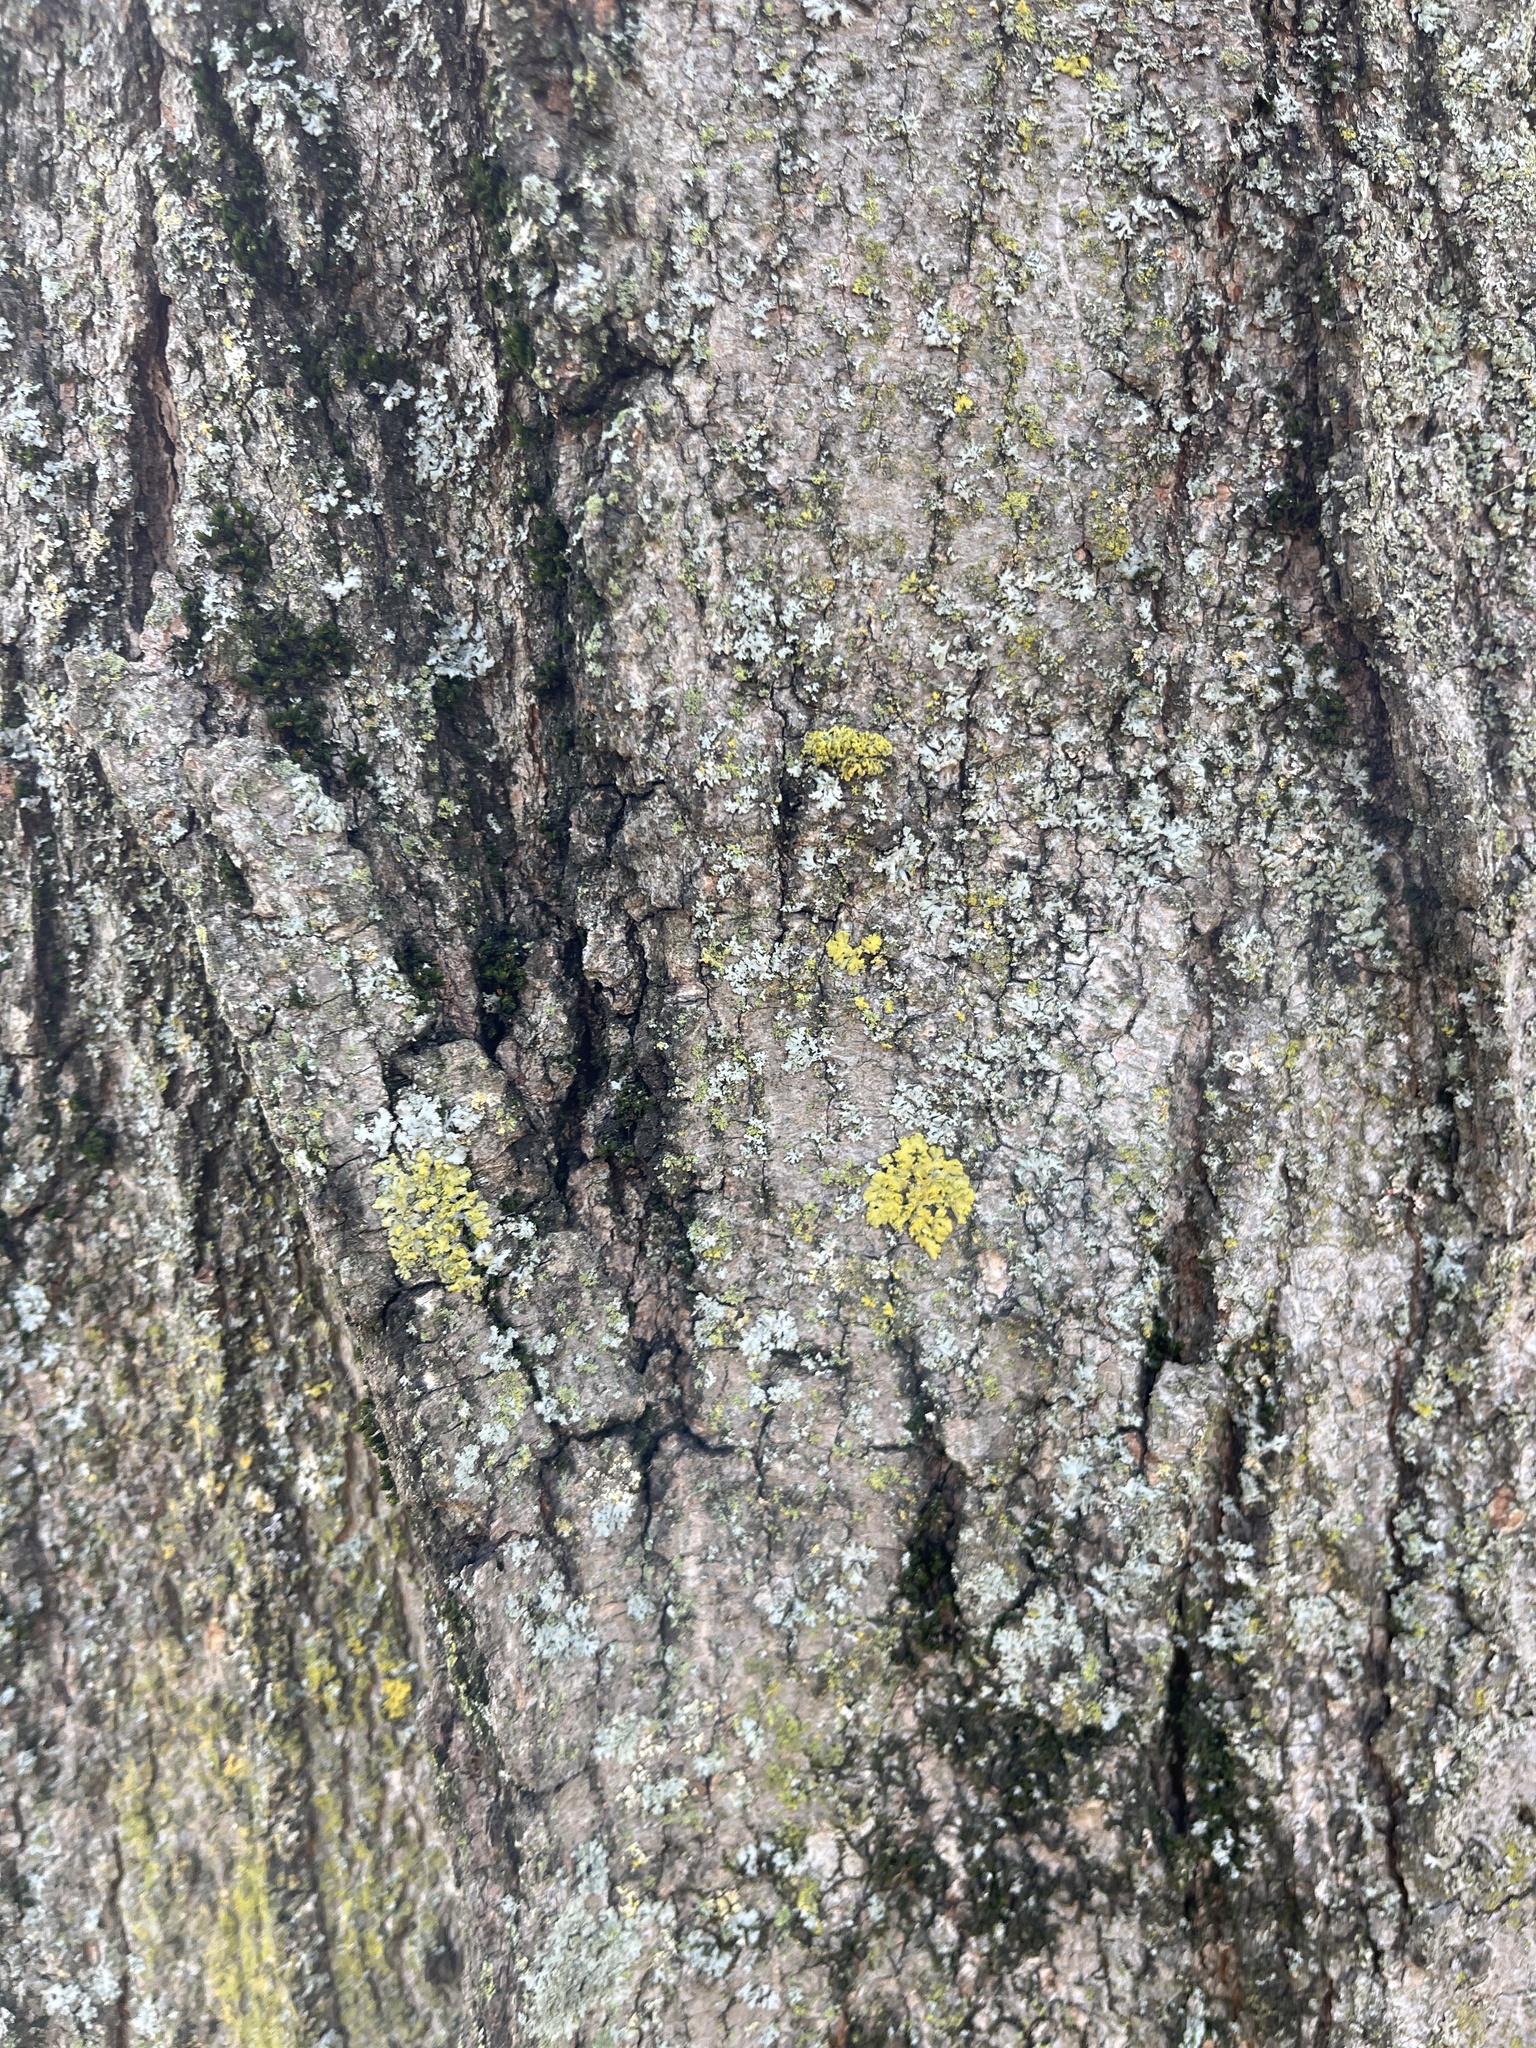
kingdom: Fungi
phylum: Ascomycota
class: Candelariomycetes
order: Candelariales
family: Candelariaceae
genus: Candelaria
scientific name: Candelaria concolor
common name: Candleflame lichen
